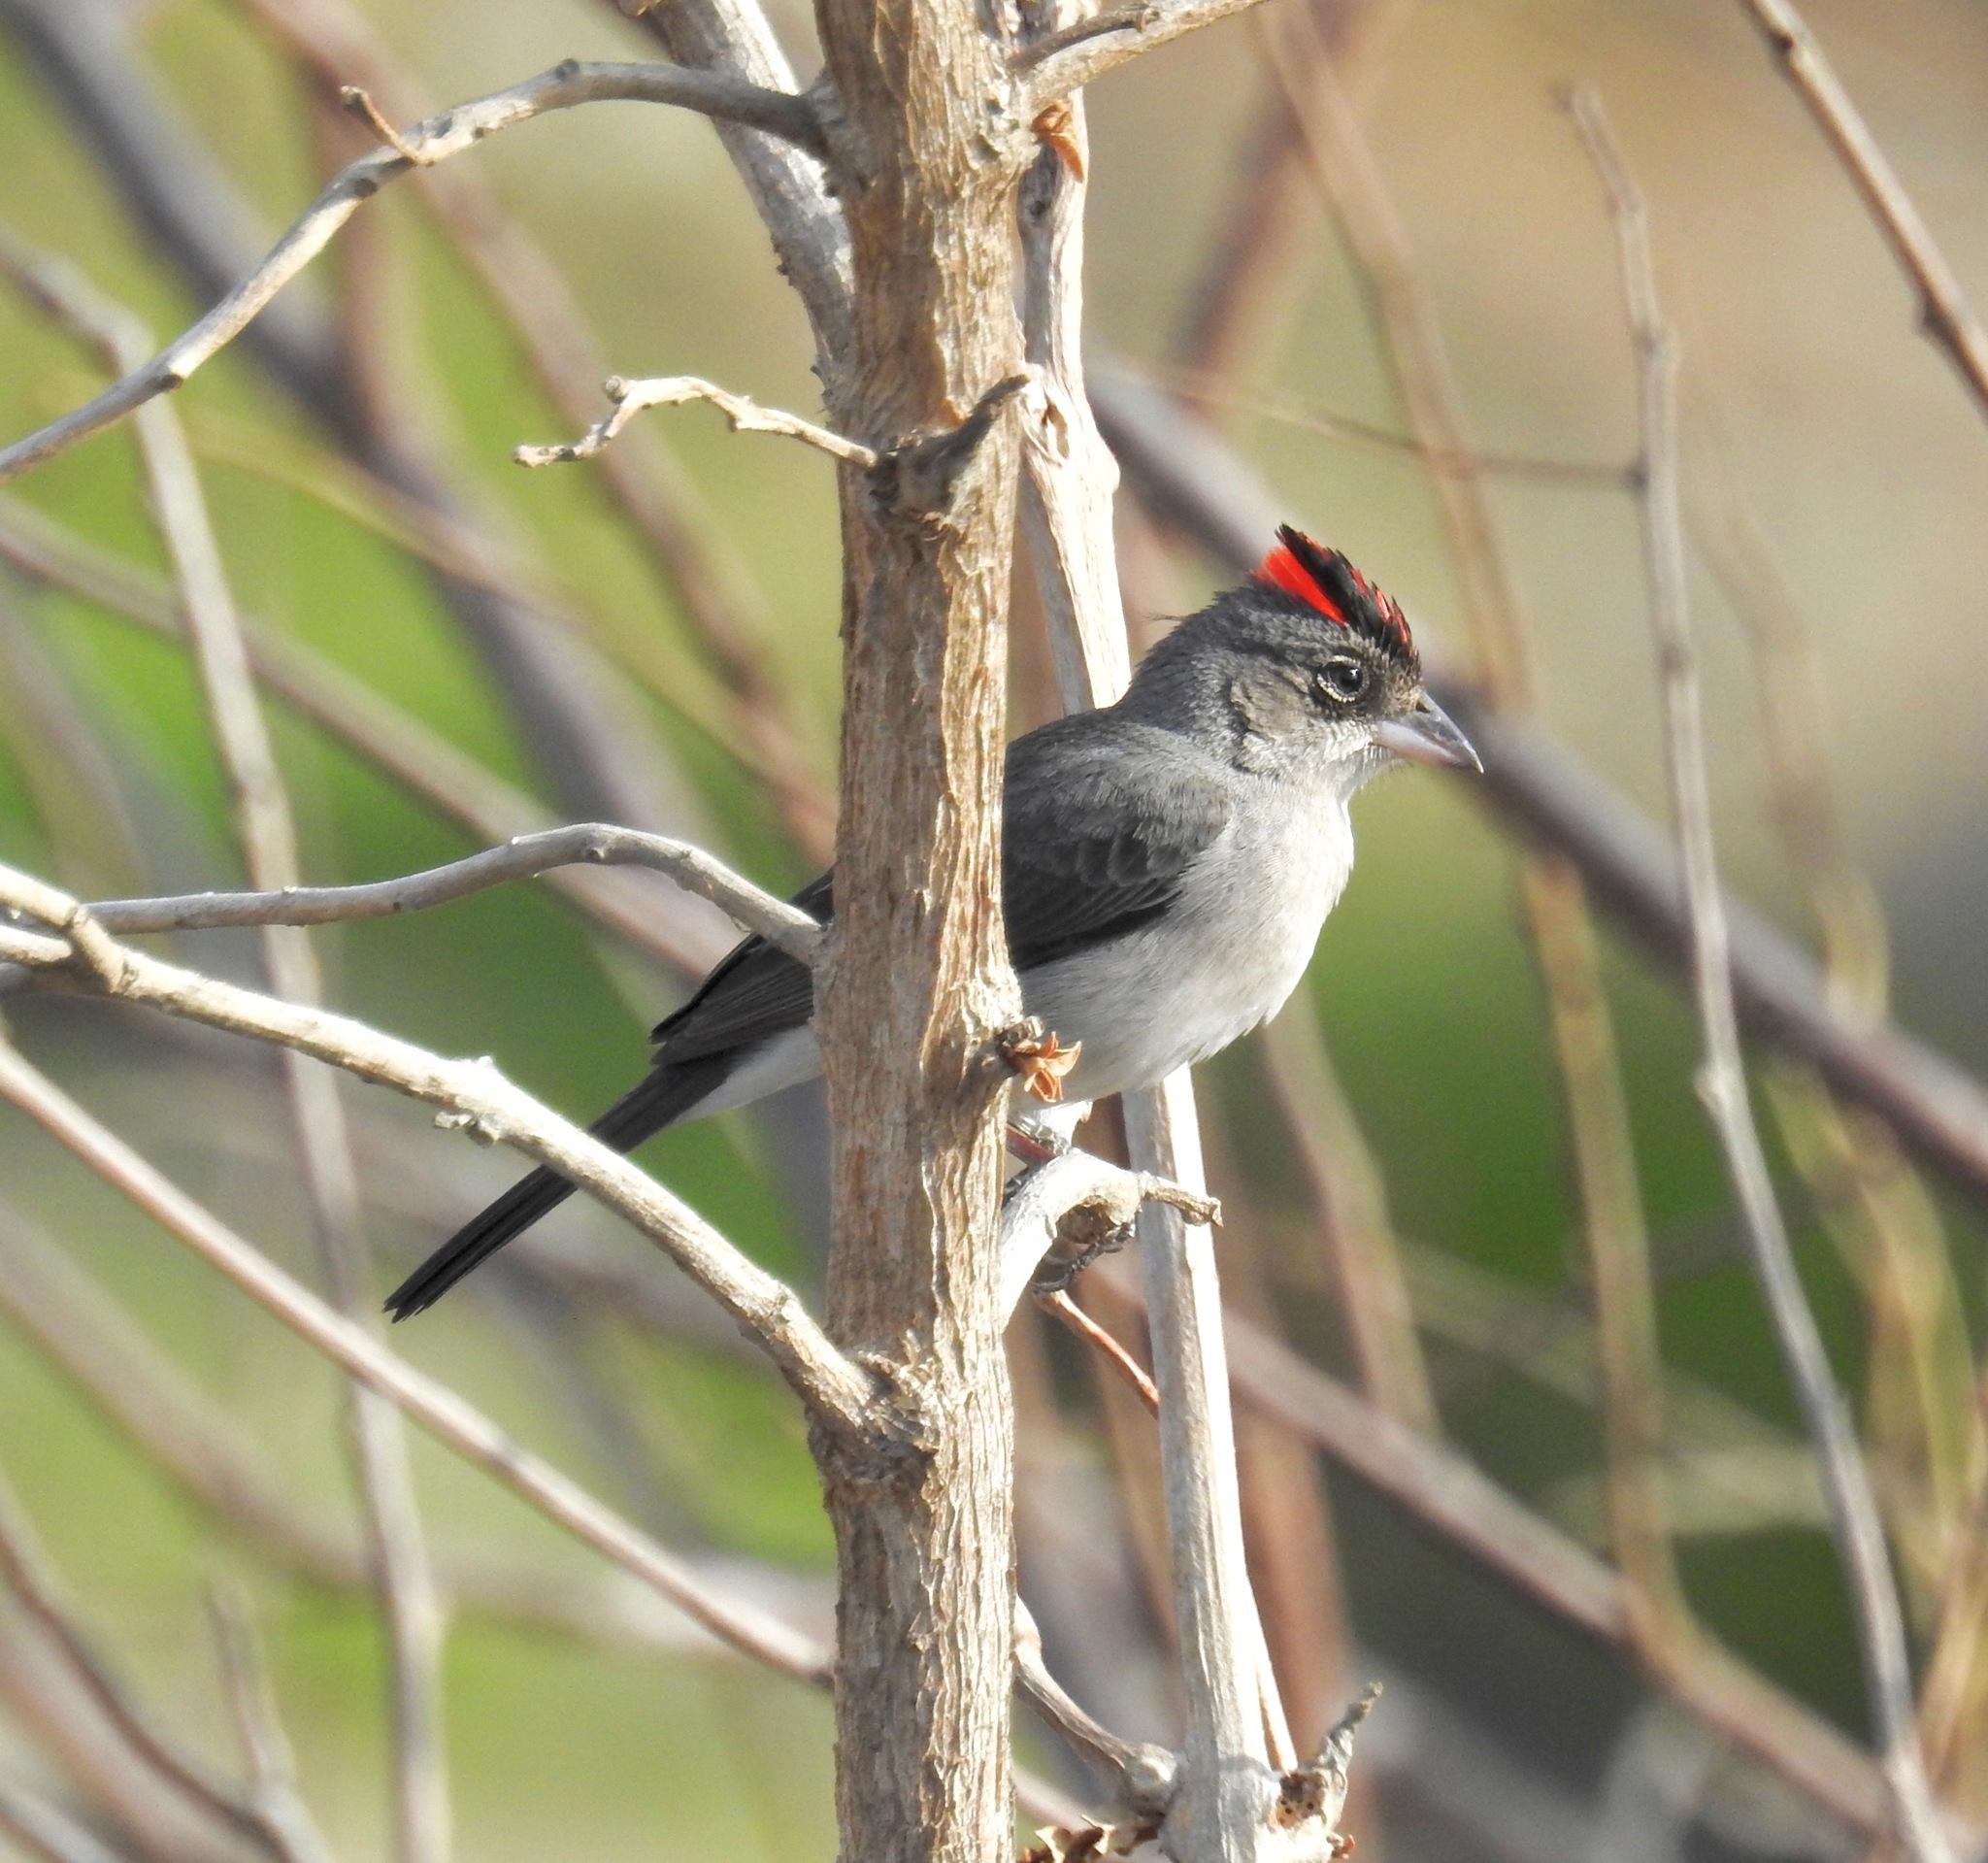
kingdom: Animalia
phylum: Chordata
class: Aves
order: Passeriformes
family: Thraupidae
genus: Coryphospingus
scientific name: Coryphospingus pileatus
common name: Grey pileated finch
